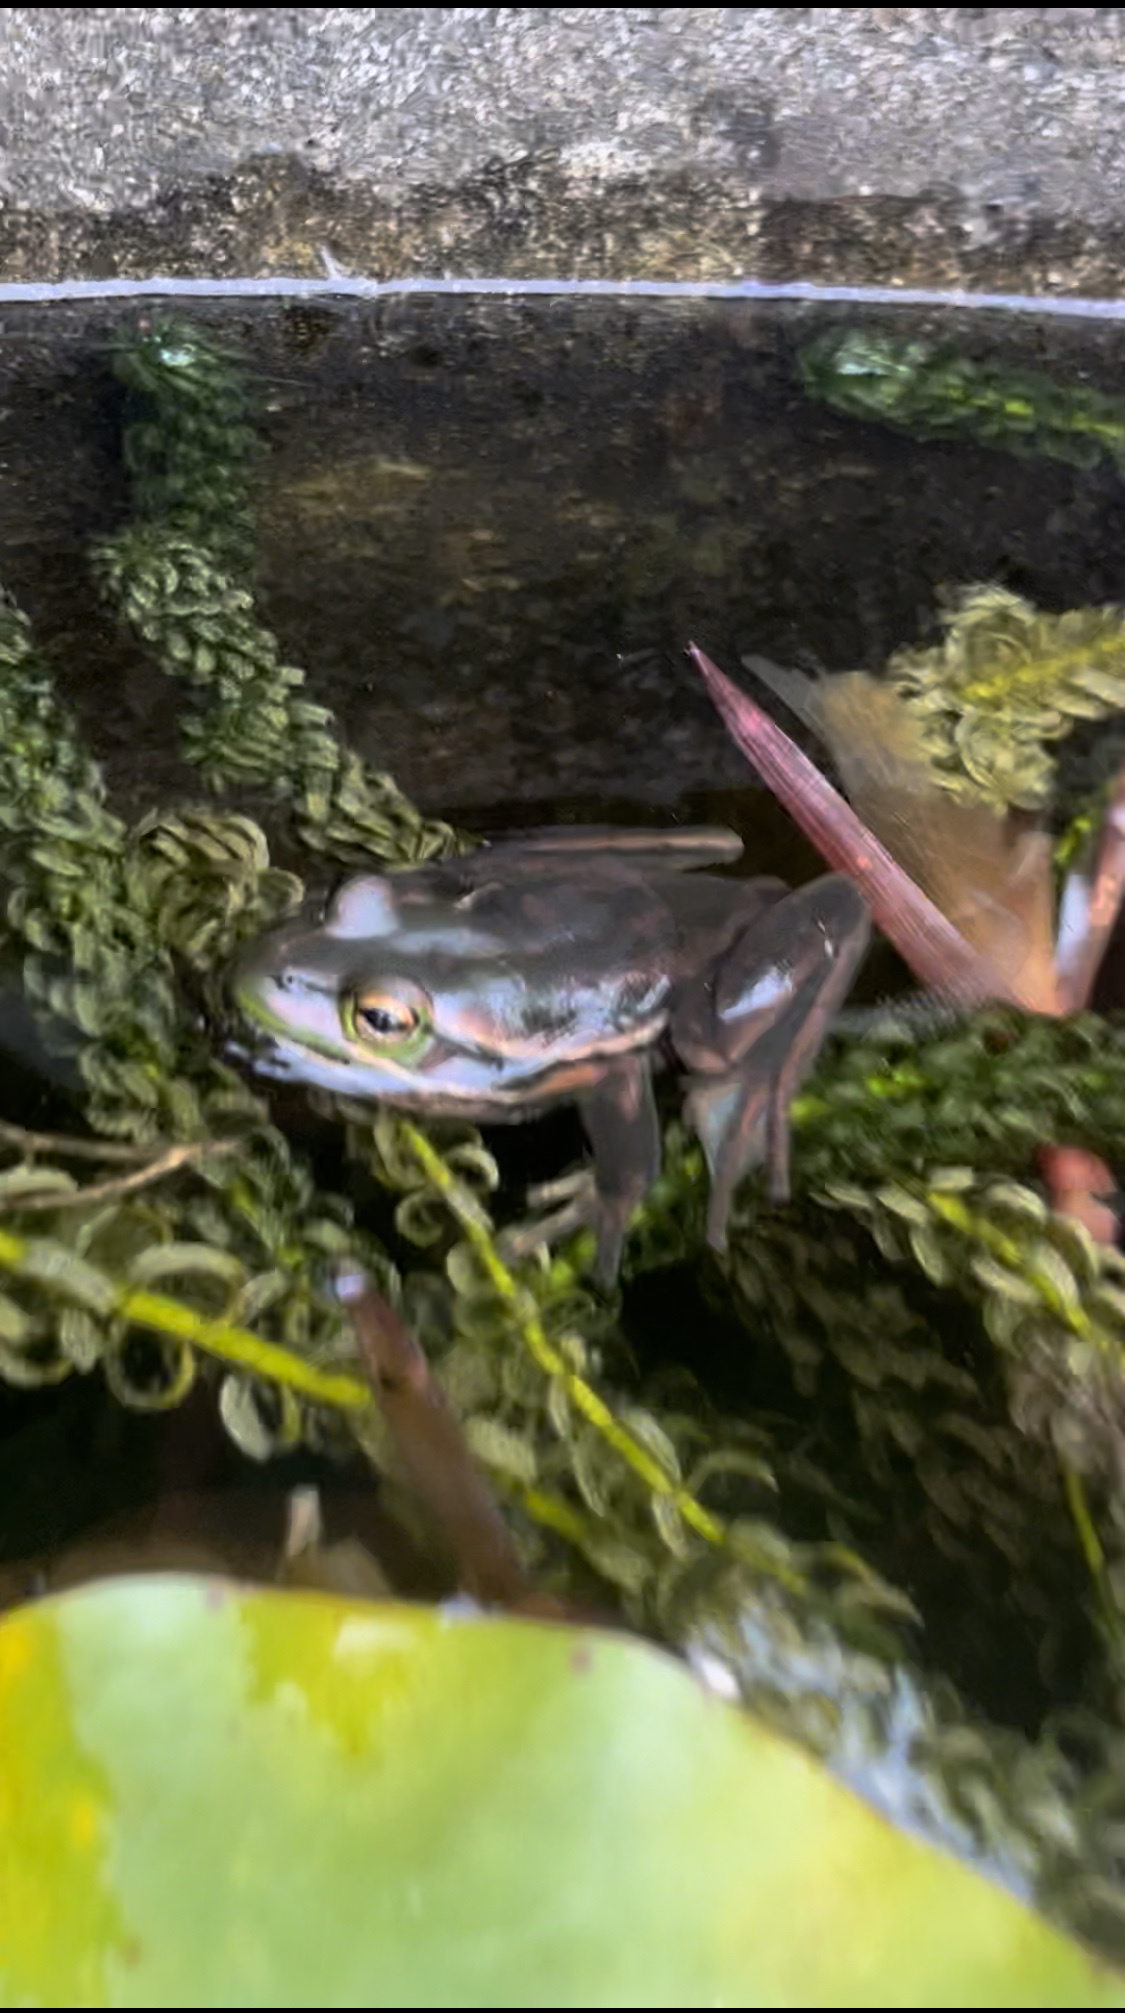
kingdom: Animalia
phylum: Chordata
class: Amphibia
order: Anura
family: Pelodryadidae
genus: Ranoidea
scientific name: Ranoidea aurea
